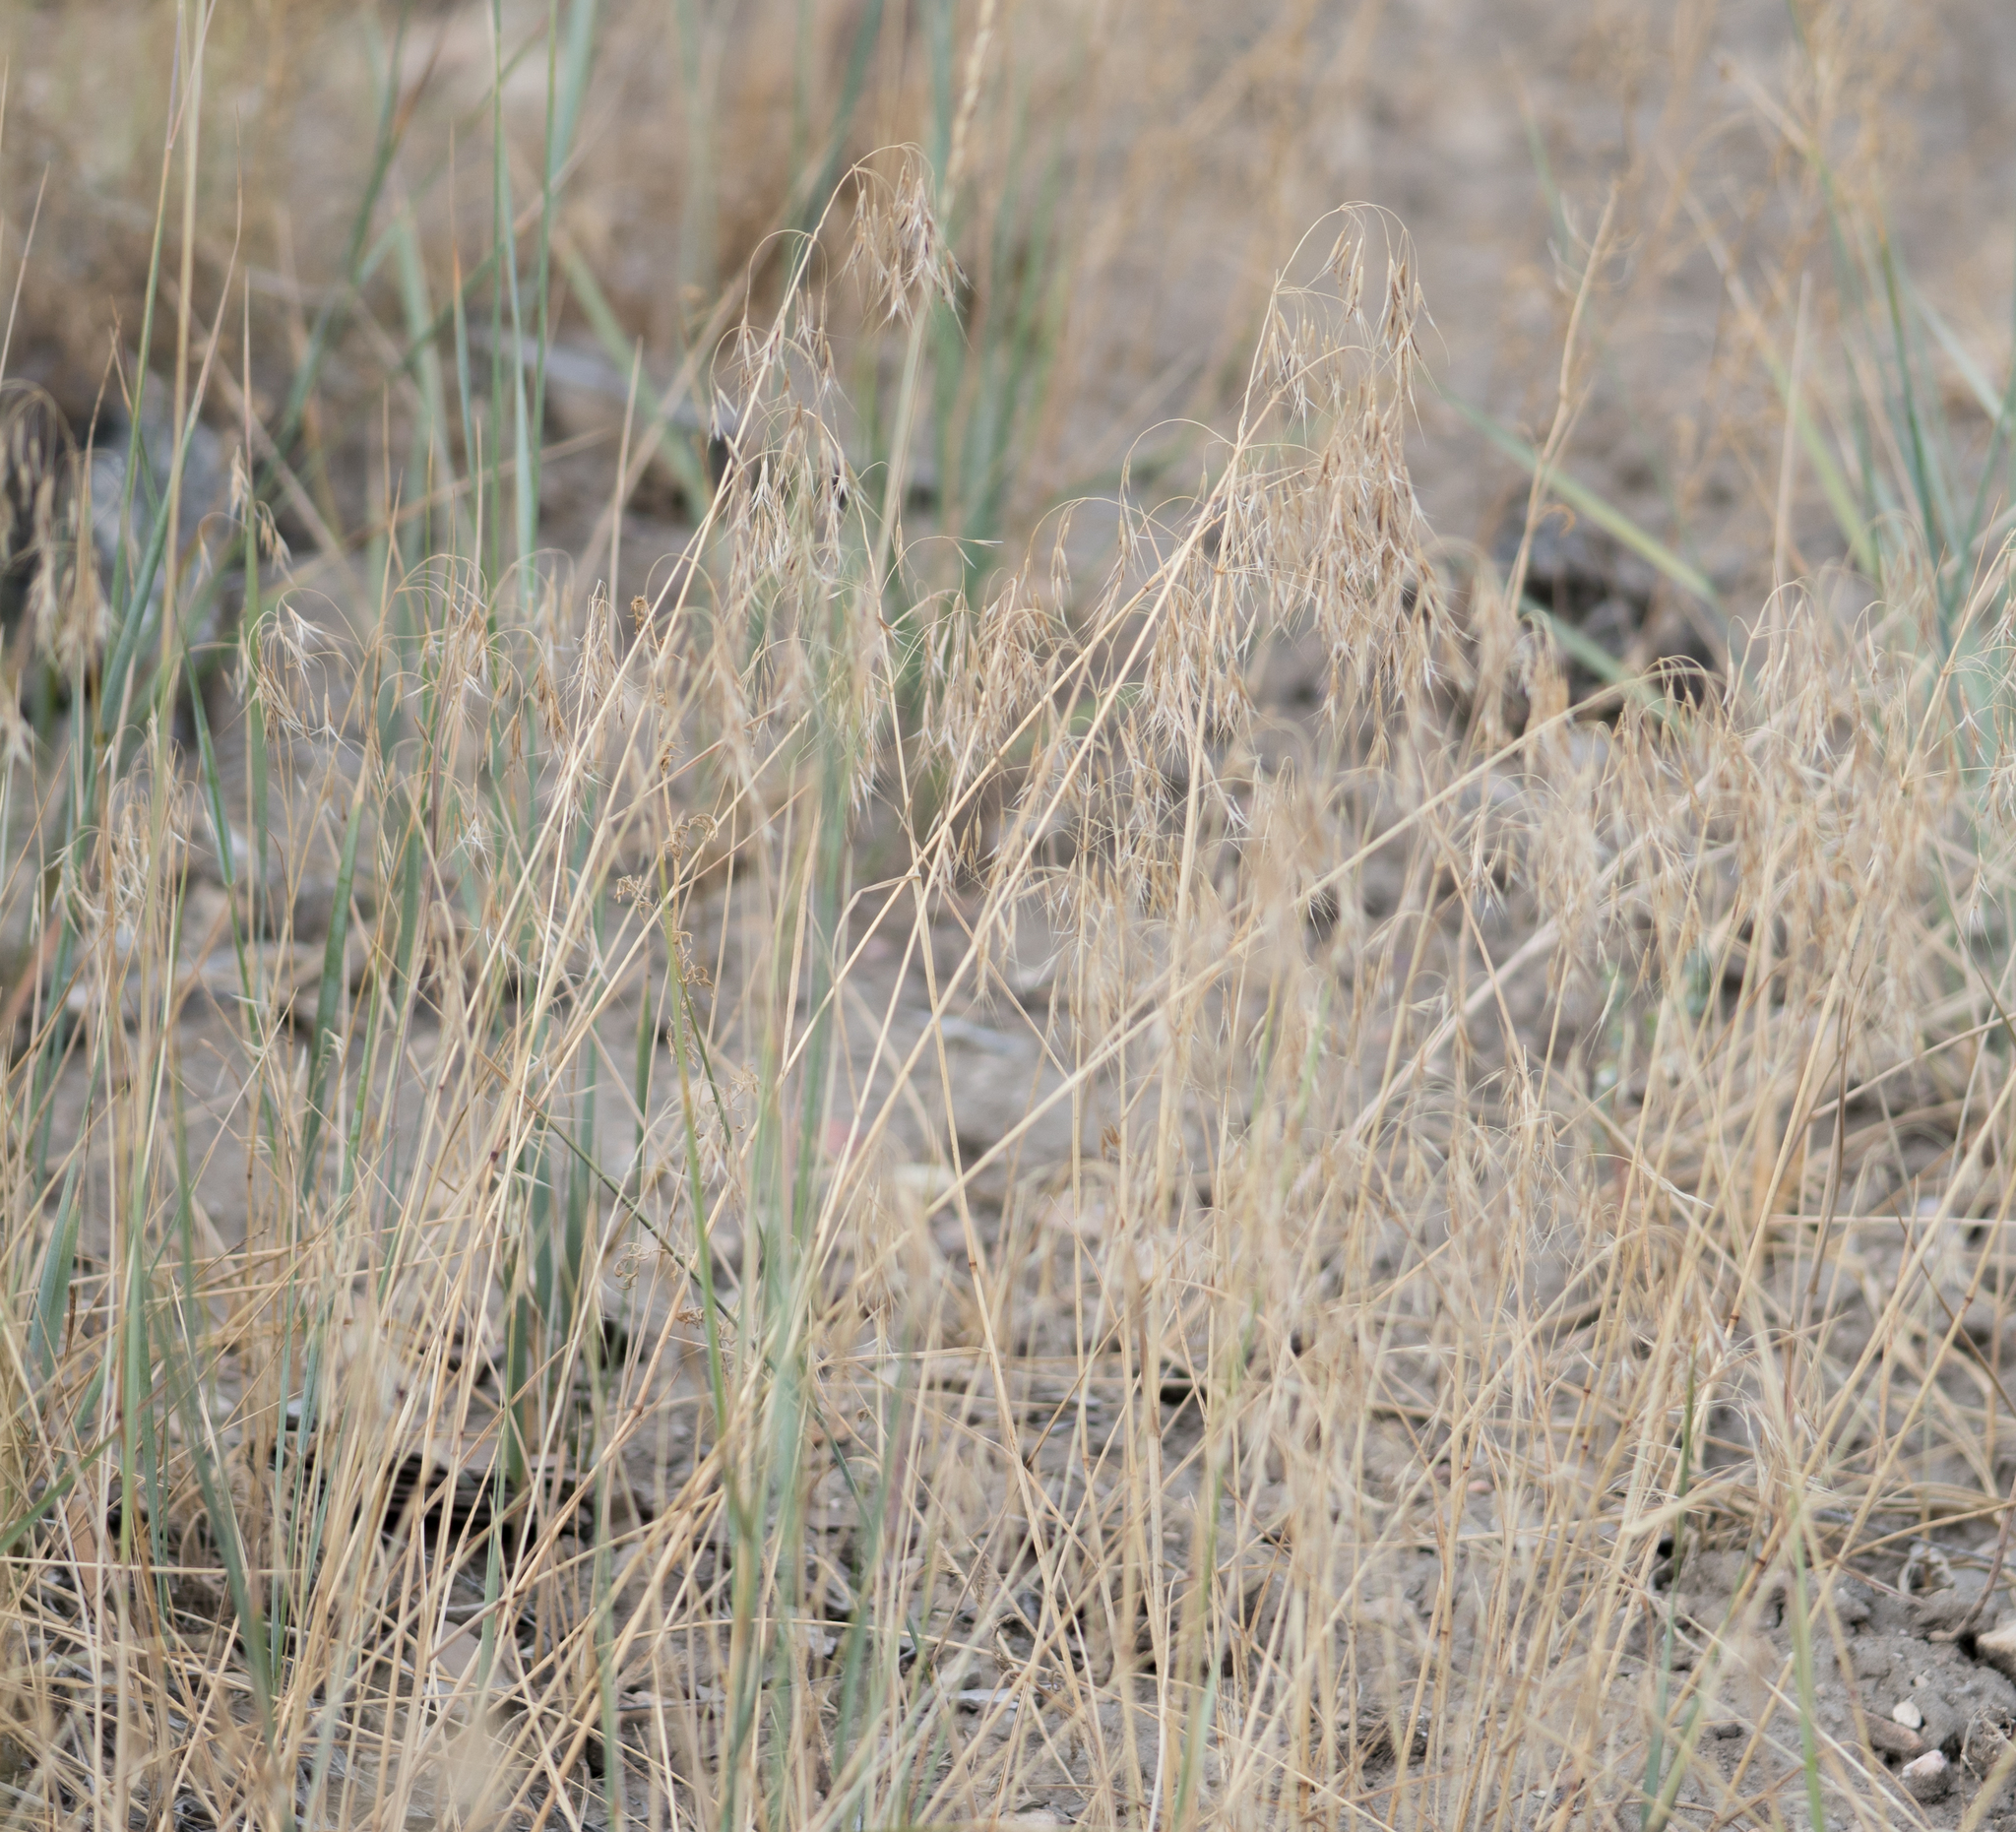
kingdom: Plantae
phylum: Tracheophyta
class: Liliopsida
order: Poales
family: Poaceae
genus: Bromus
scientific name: Bromus tectorum
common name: Cheatgrass
